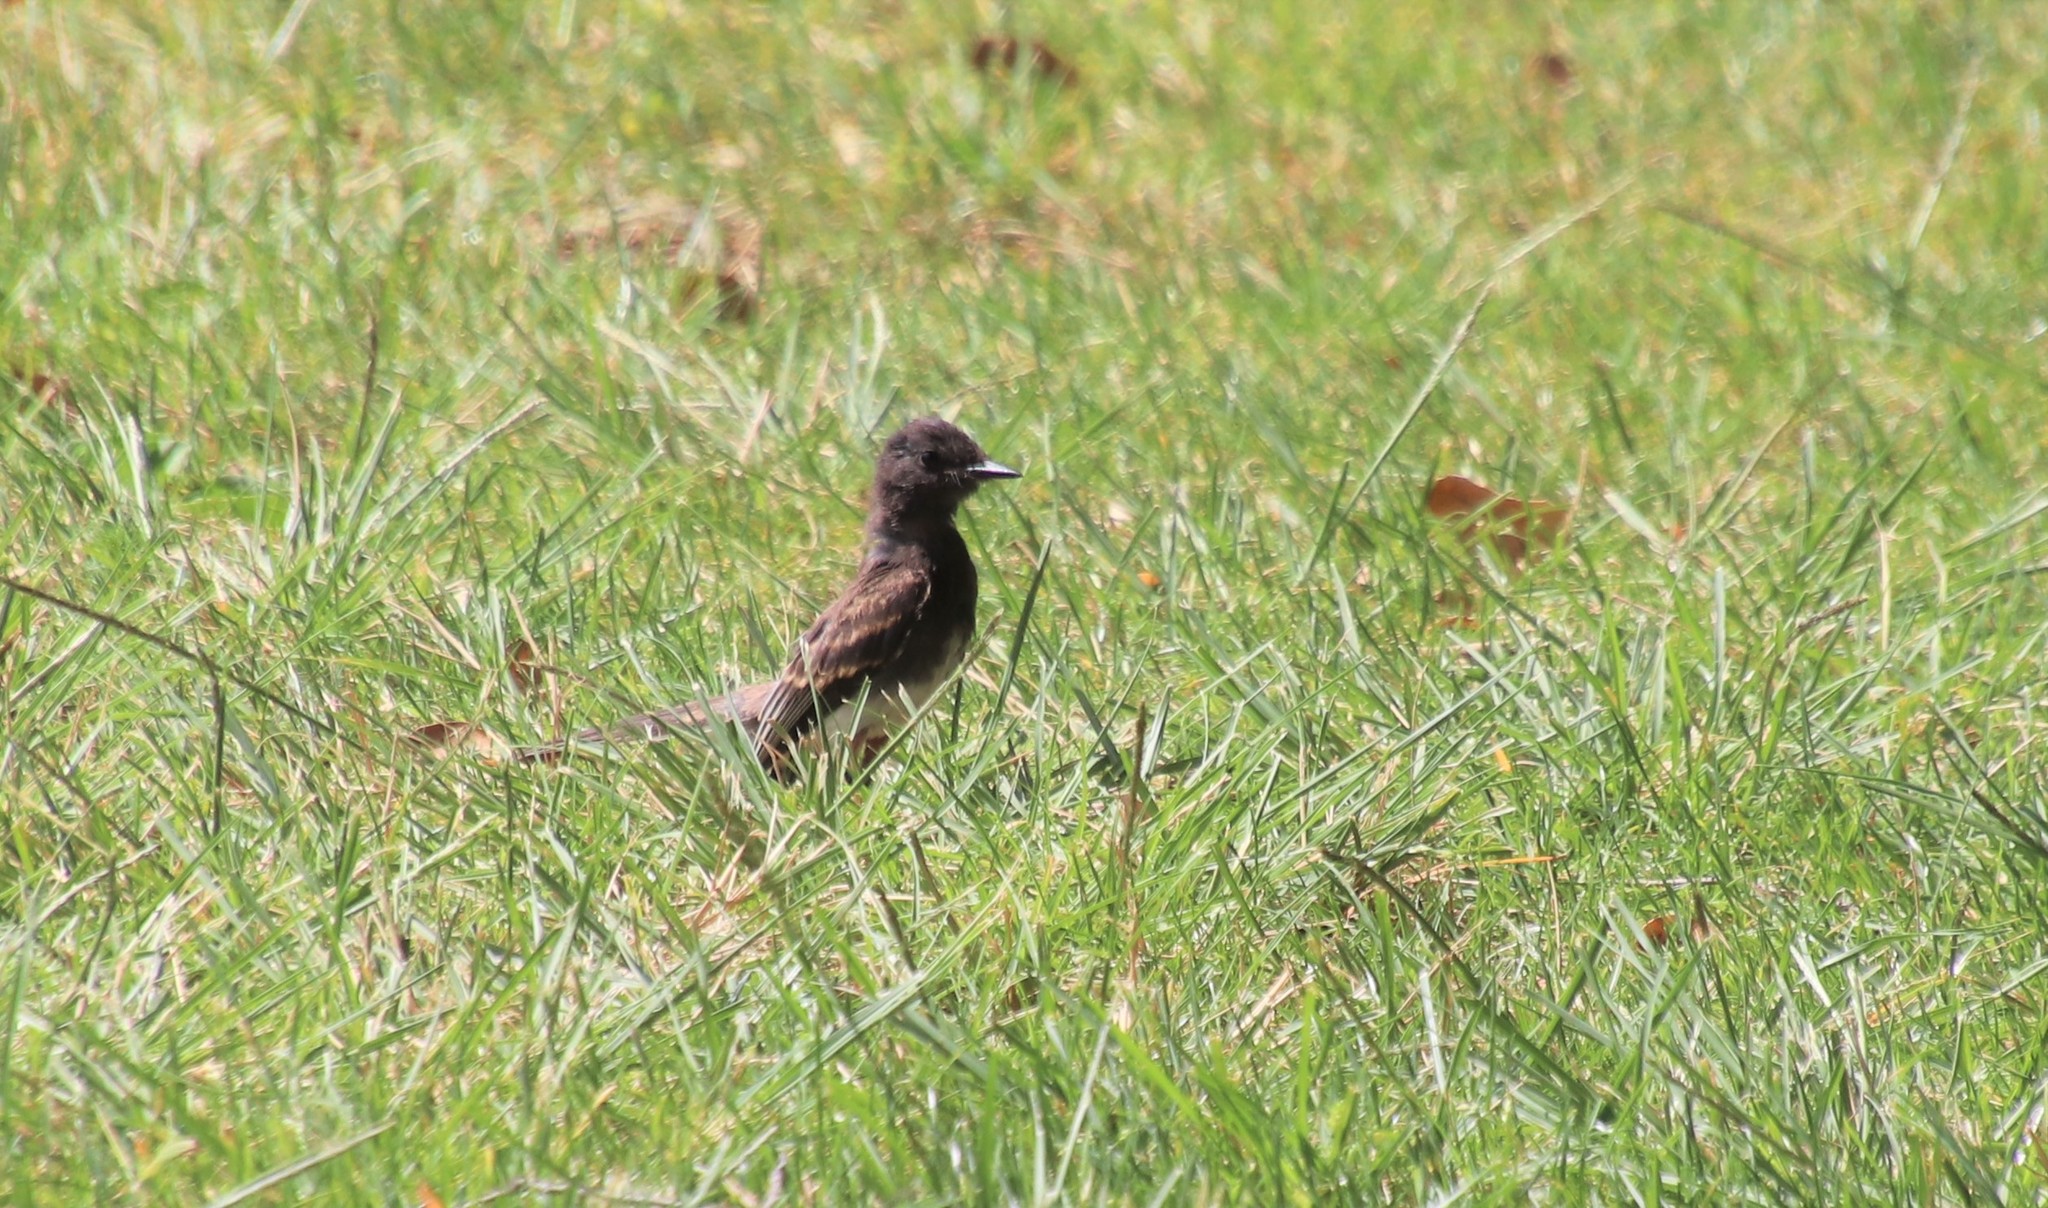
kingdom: Animalia
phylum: Chordata
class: Aves
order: Passeriformes
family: Tyrannidae
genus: Sayornis
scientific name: Sayornis nigricans
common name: Black phoebe
